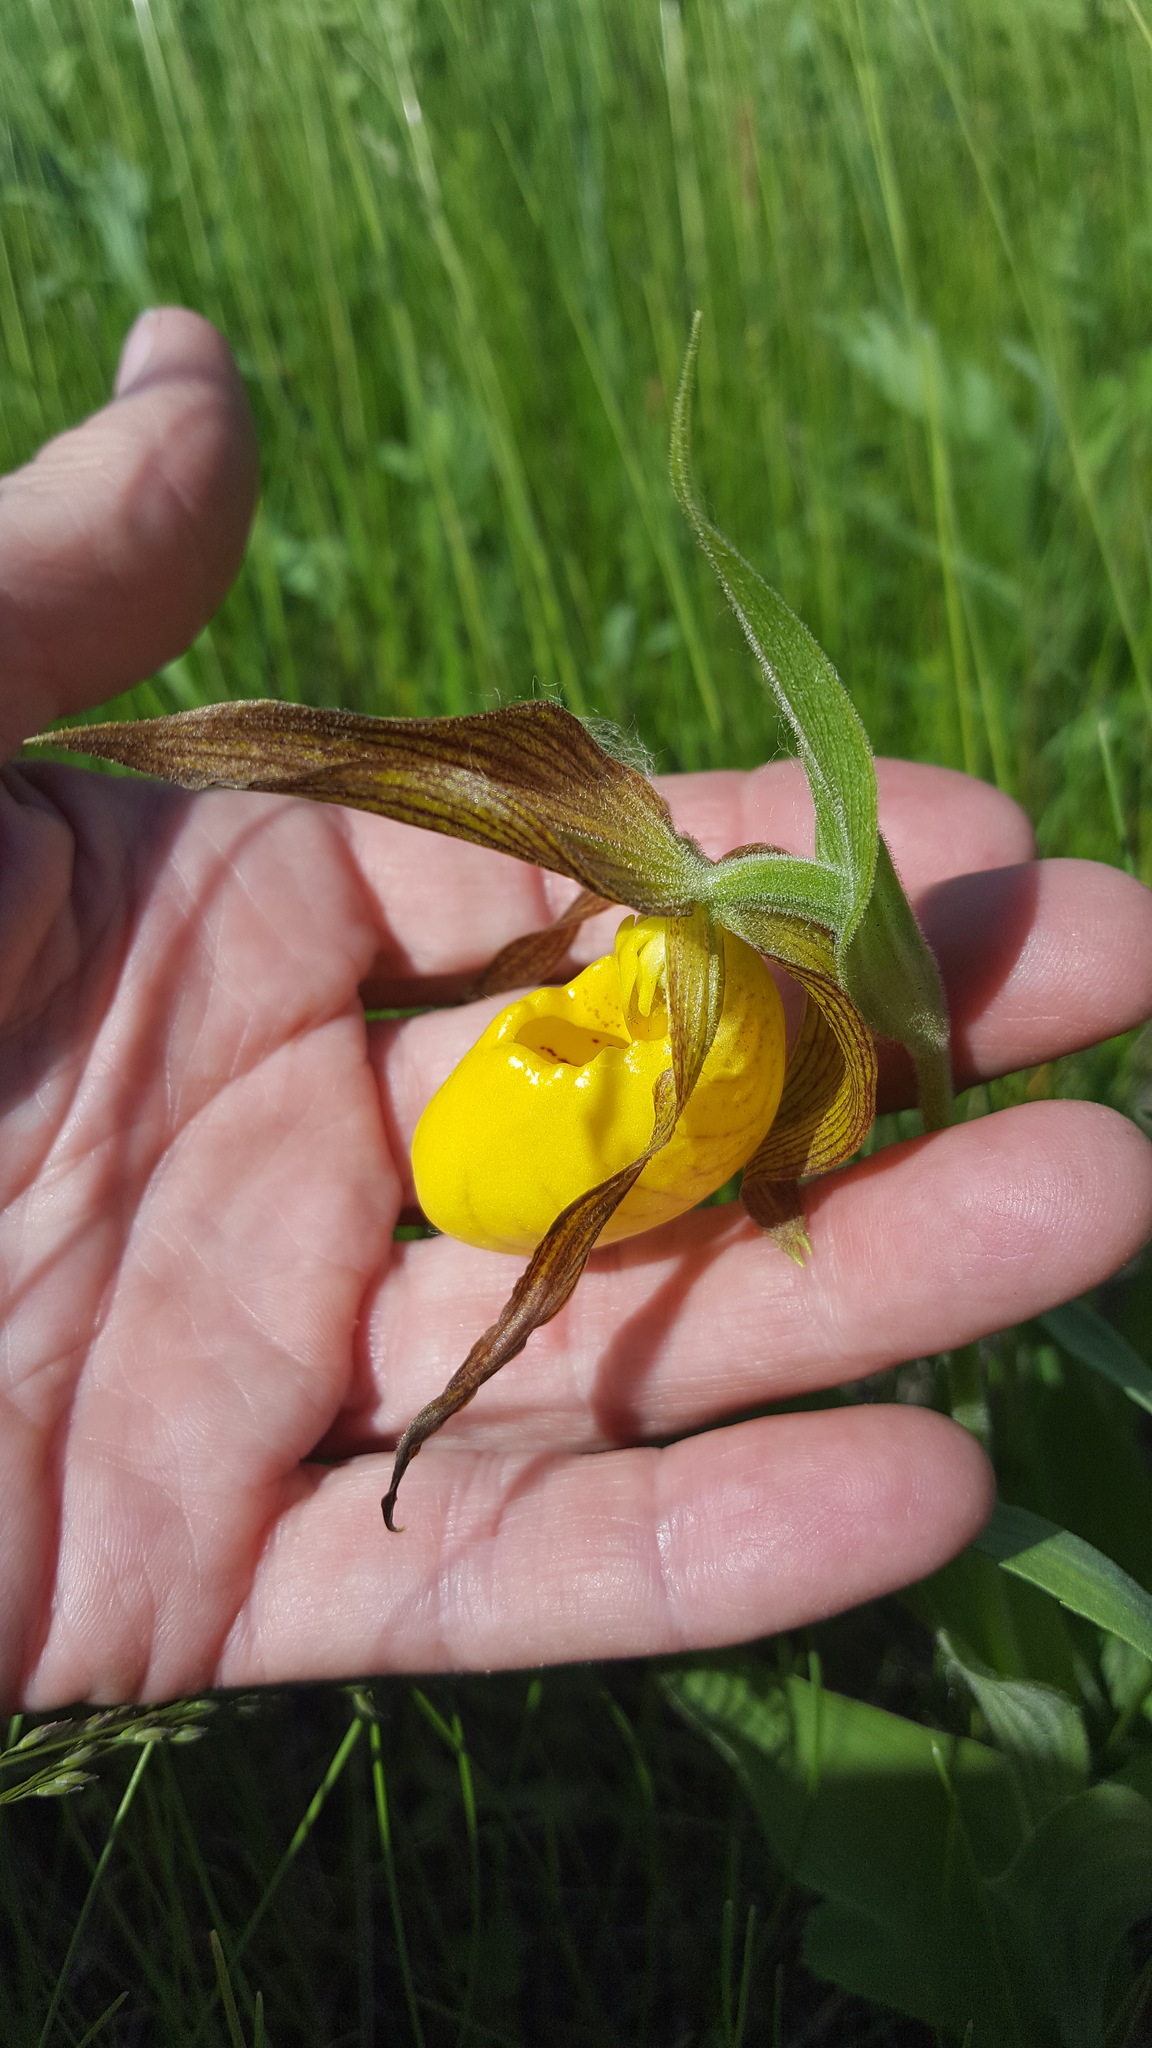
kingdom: Plantae
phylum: Tracheophyta
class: Liliopsida
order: Asparagales
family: Orchidaceae
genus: Cypripedium
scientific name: Cypripedium parviflorum
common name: American yellow lady's-slipper
